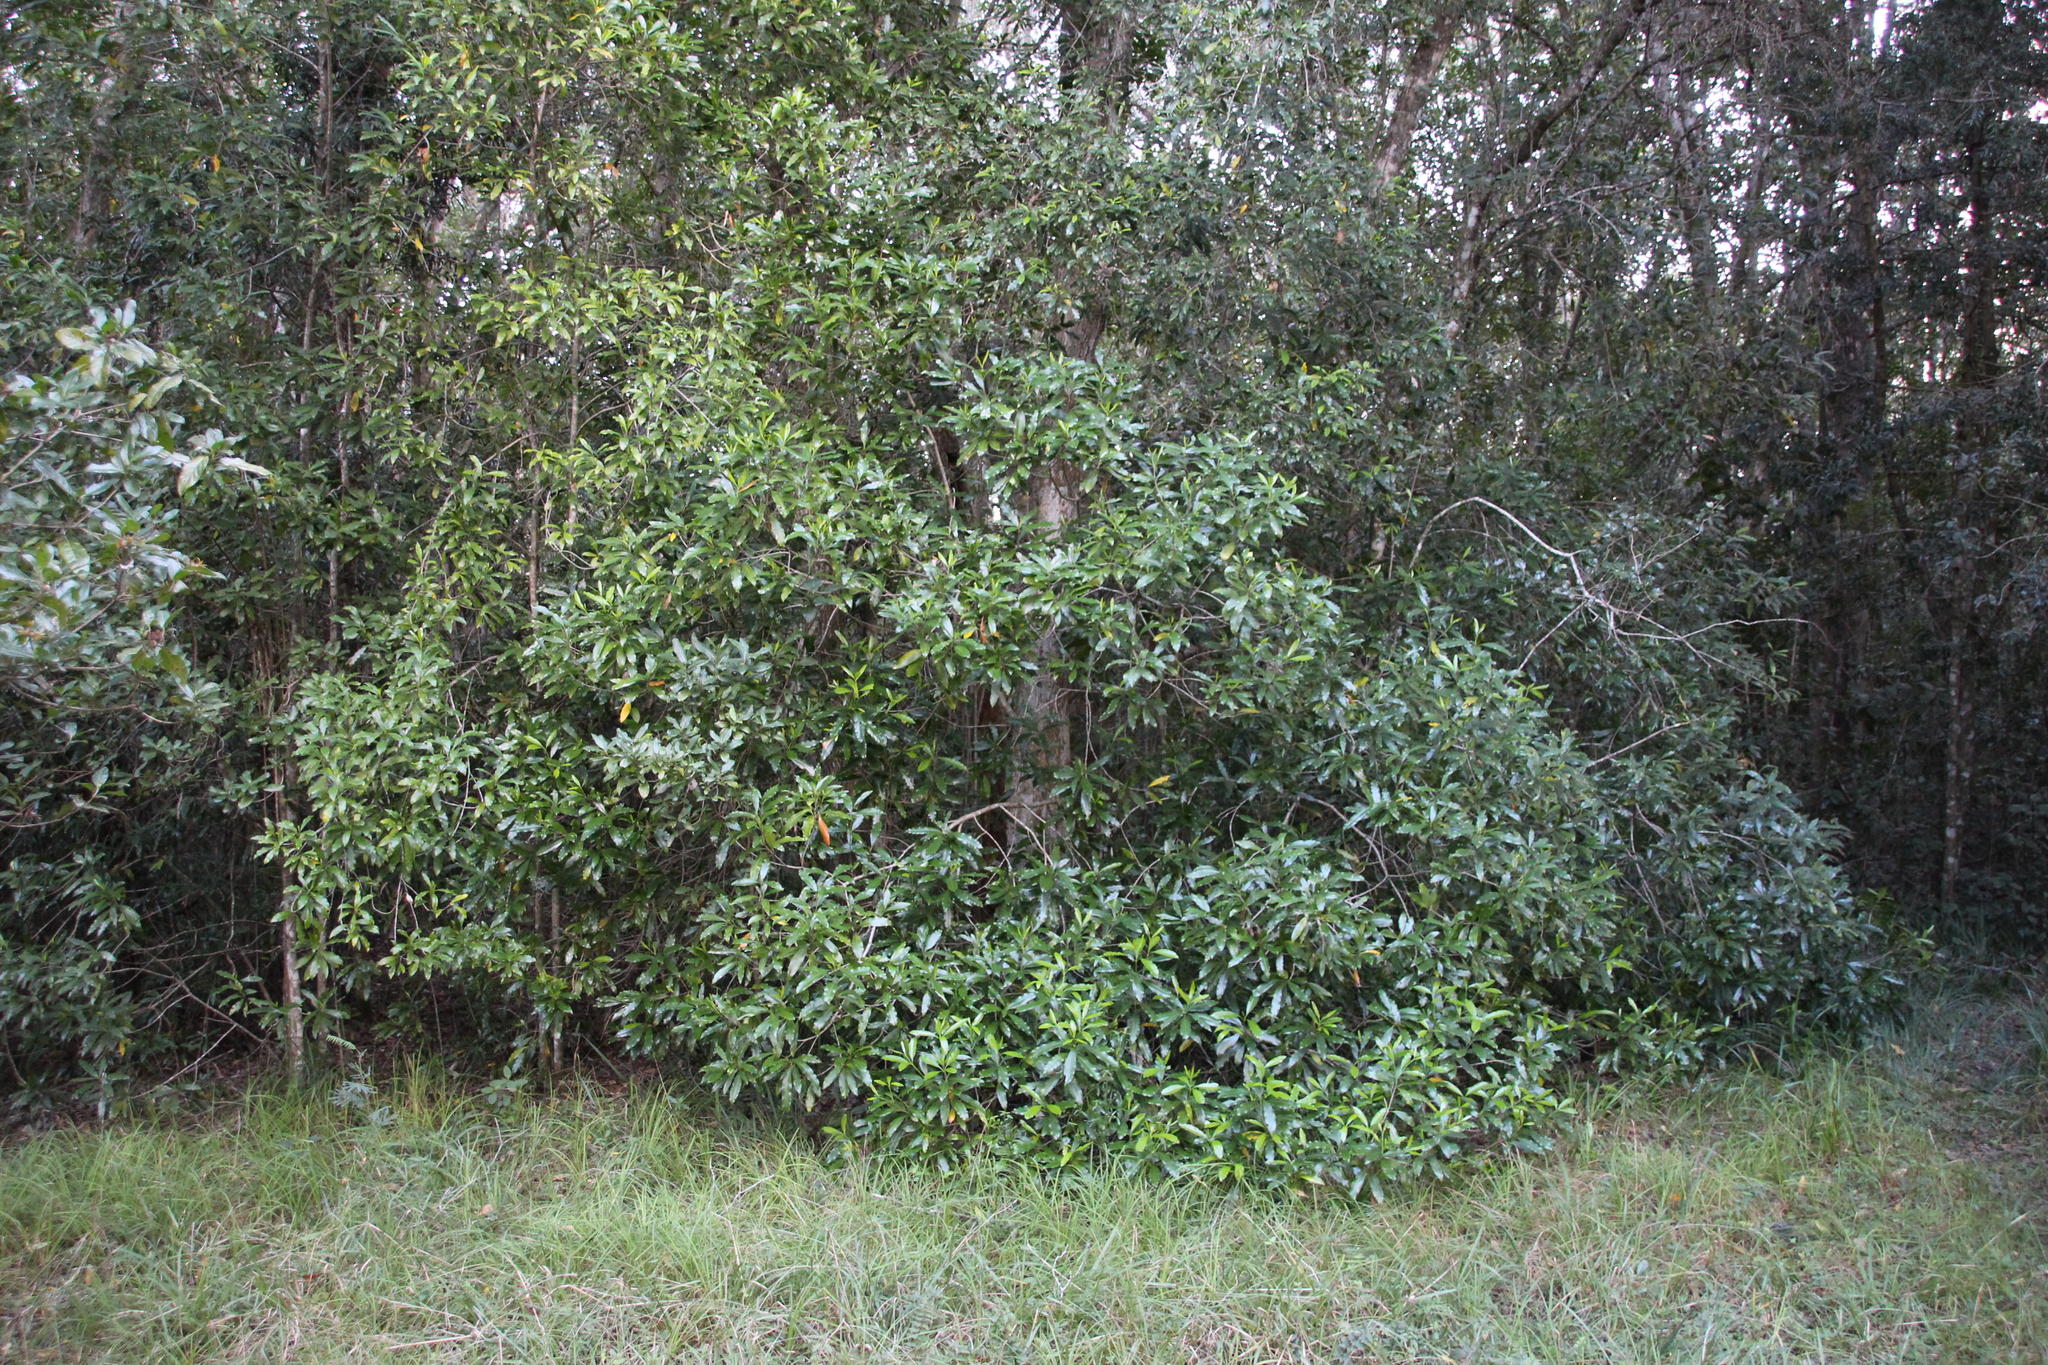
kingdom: Plantae
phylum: Tracheophyta
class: Magnoliopsida
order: Gentianales
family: Apocynaceae
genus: Gonioma
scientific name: Gonioma kamassi
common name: Kamassi
